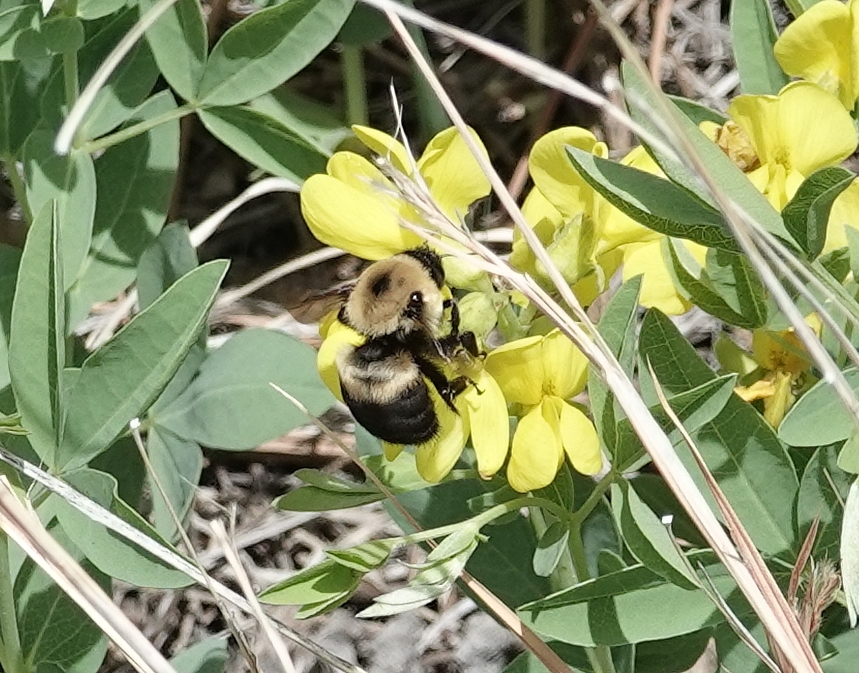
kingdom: Animalia
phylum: Arthropoda
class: Insecta
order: Hymenoptera
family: Apidae
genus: Bombus
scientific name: Bombus griseocollis
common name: Brown-belted bumble bee
